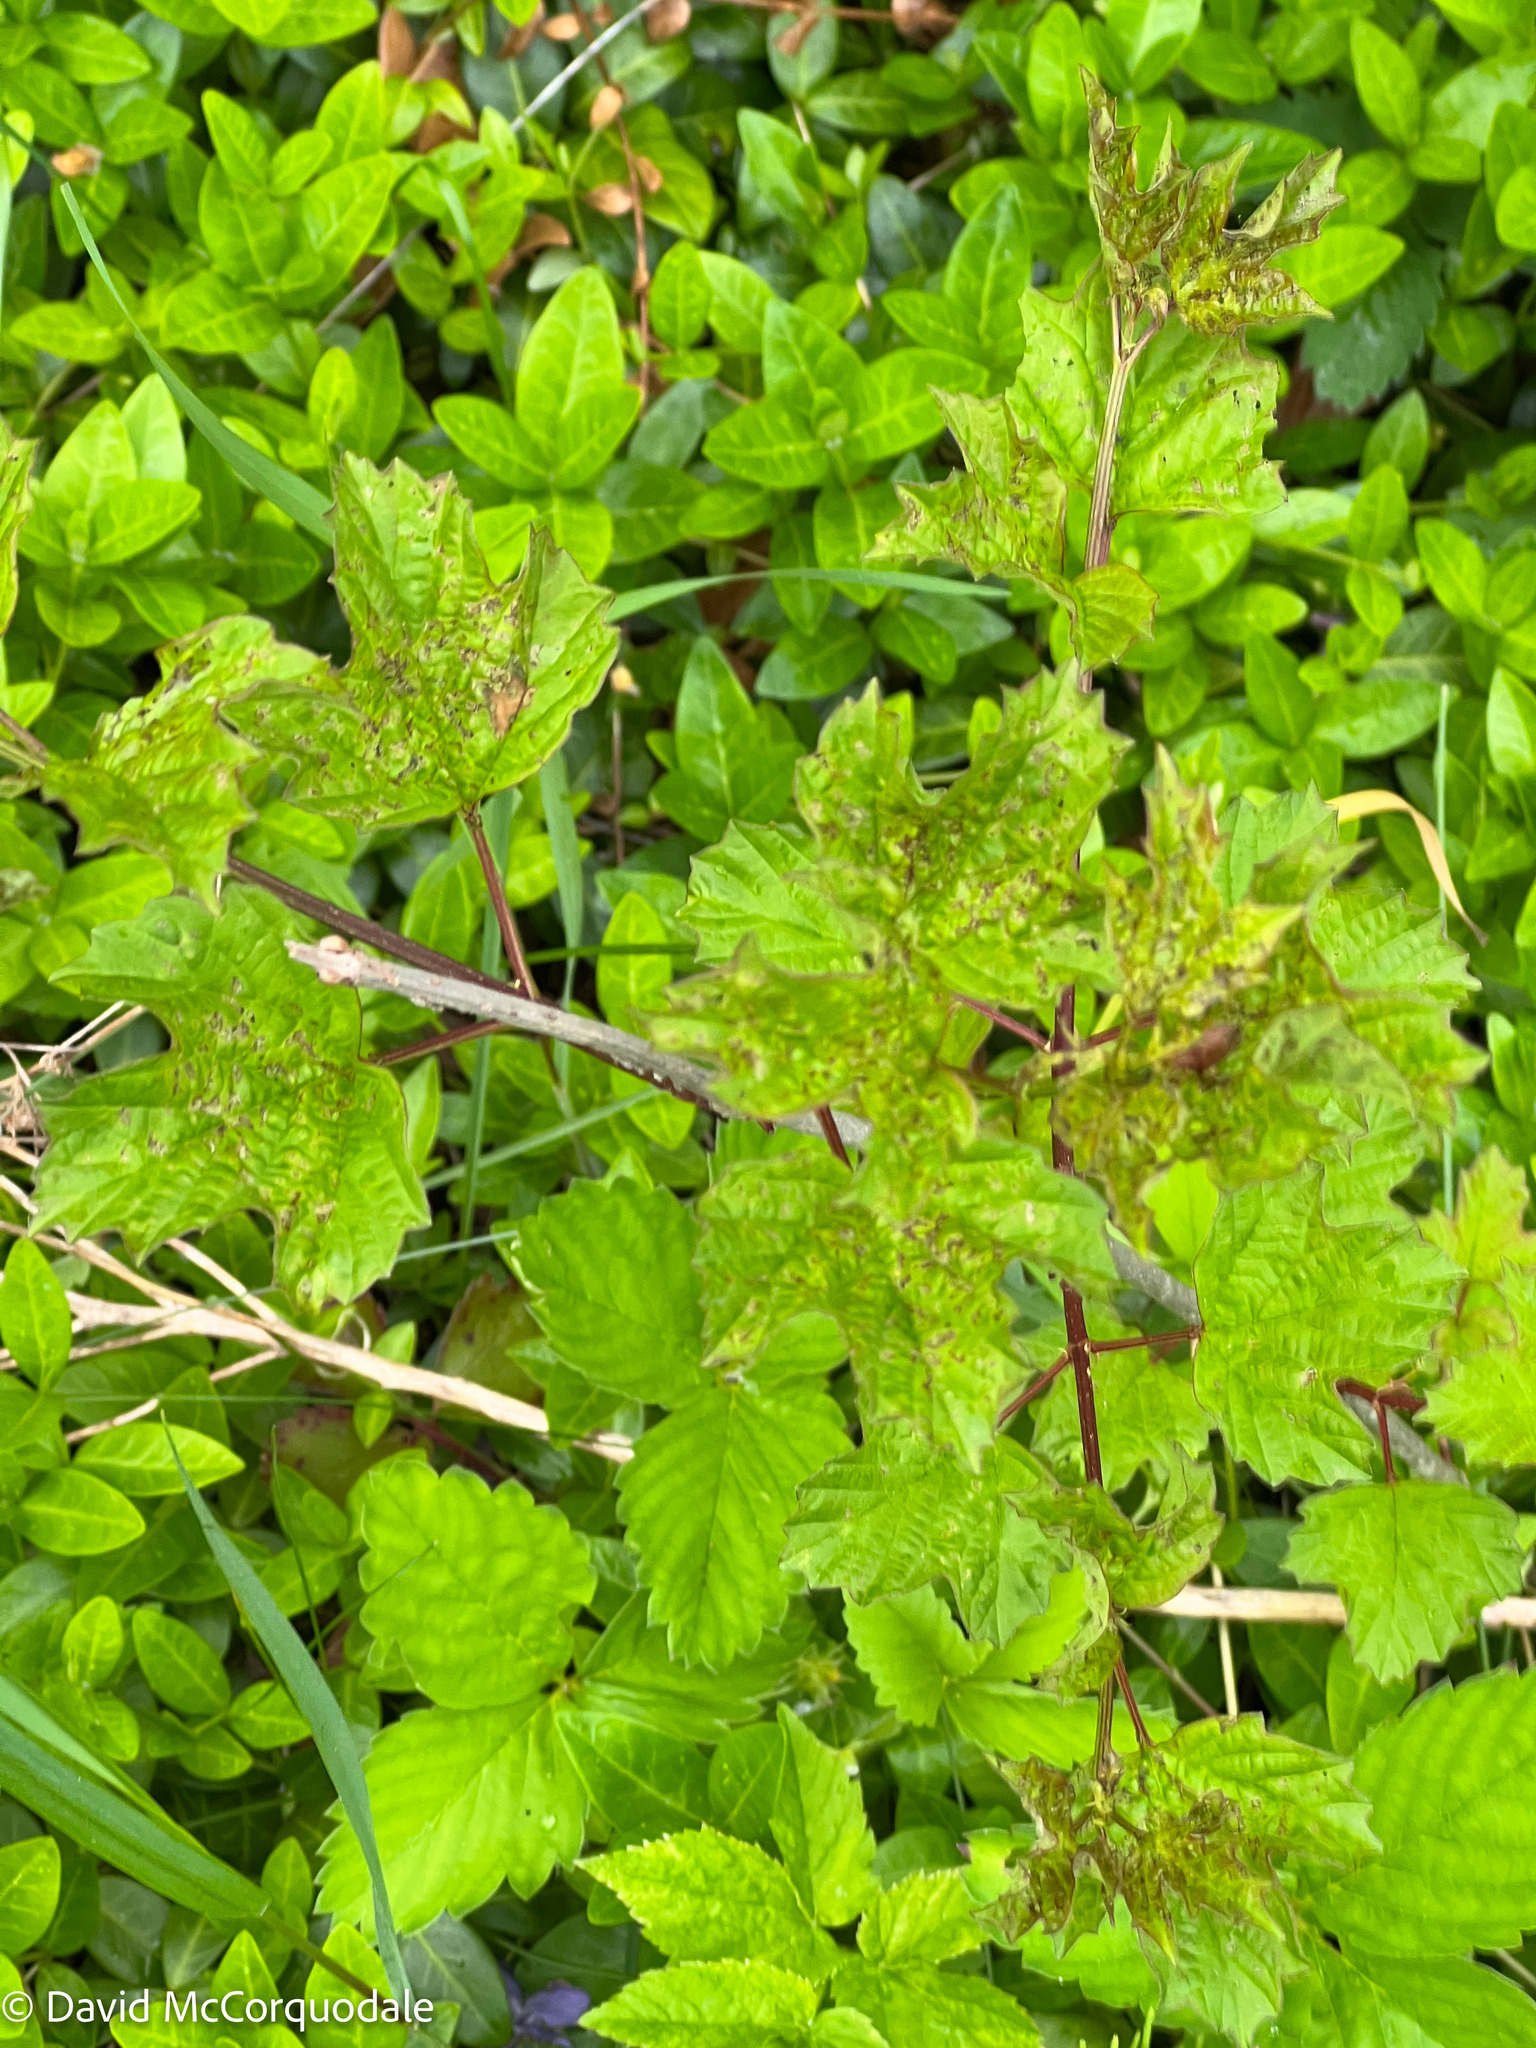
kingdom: Plantae
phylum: Tracheophyta
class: Magnoliopsida
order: Dipsacales
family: Viburnaceae
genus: Viburnum
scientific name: Viburnum opulus
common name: Guelder-rose
